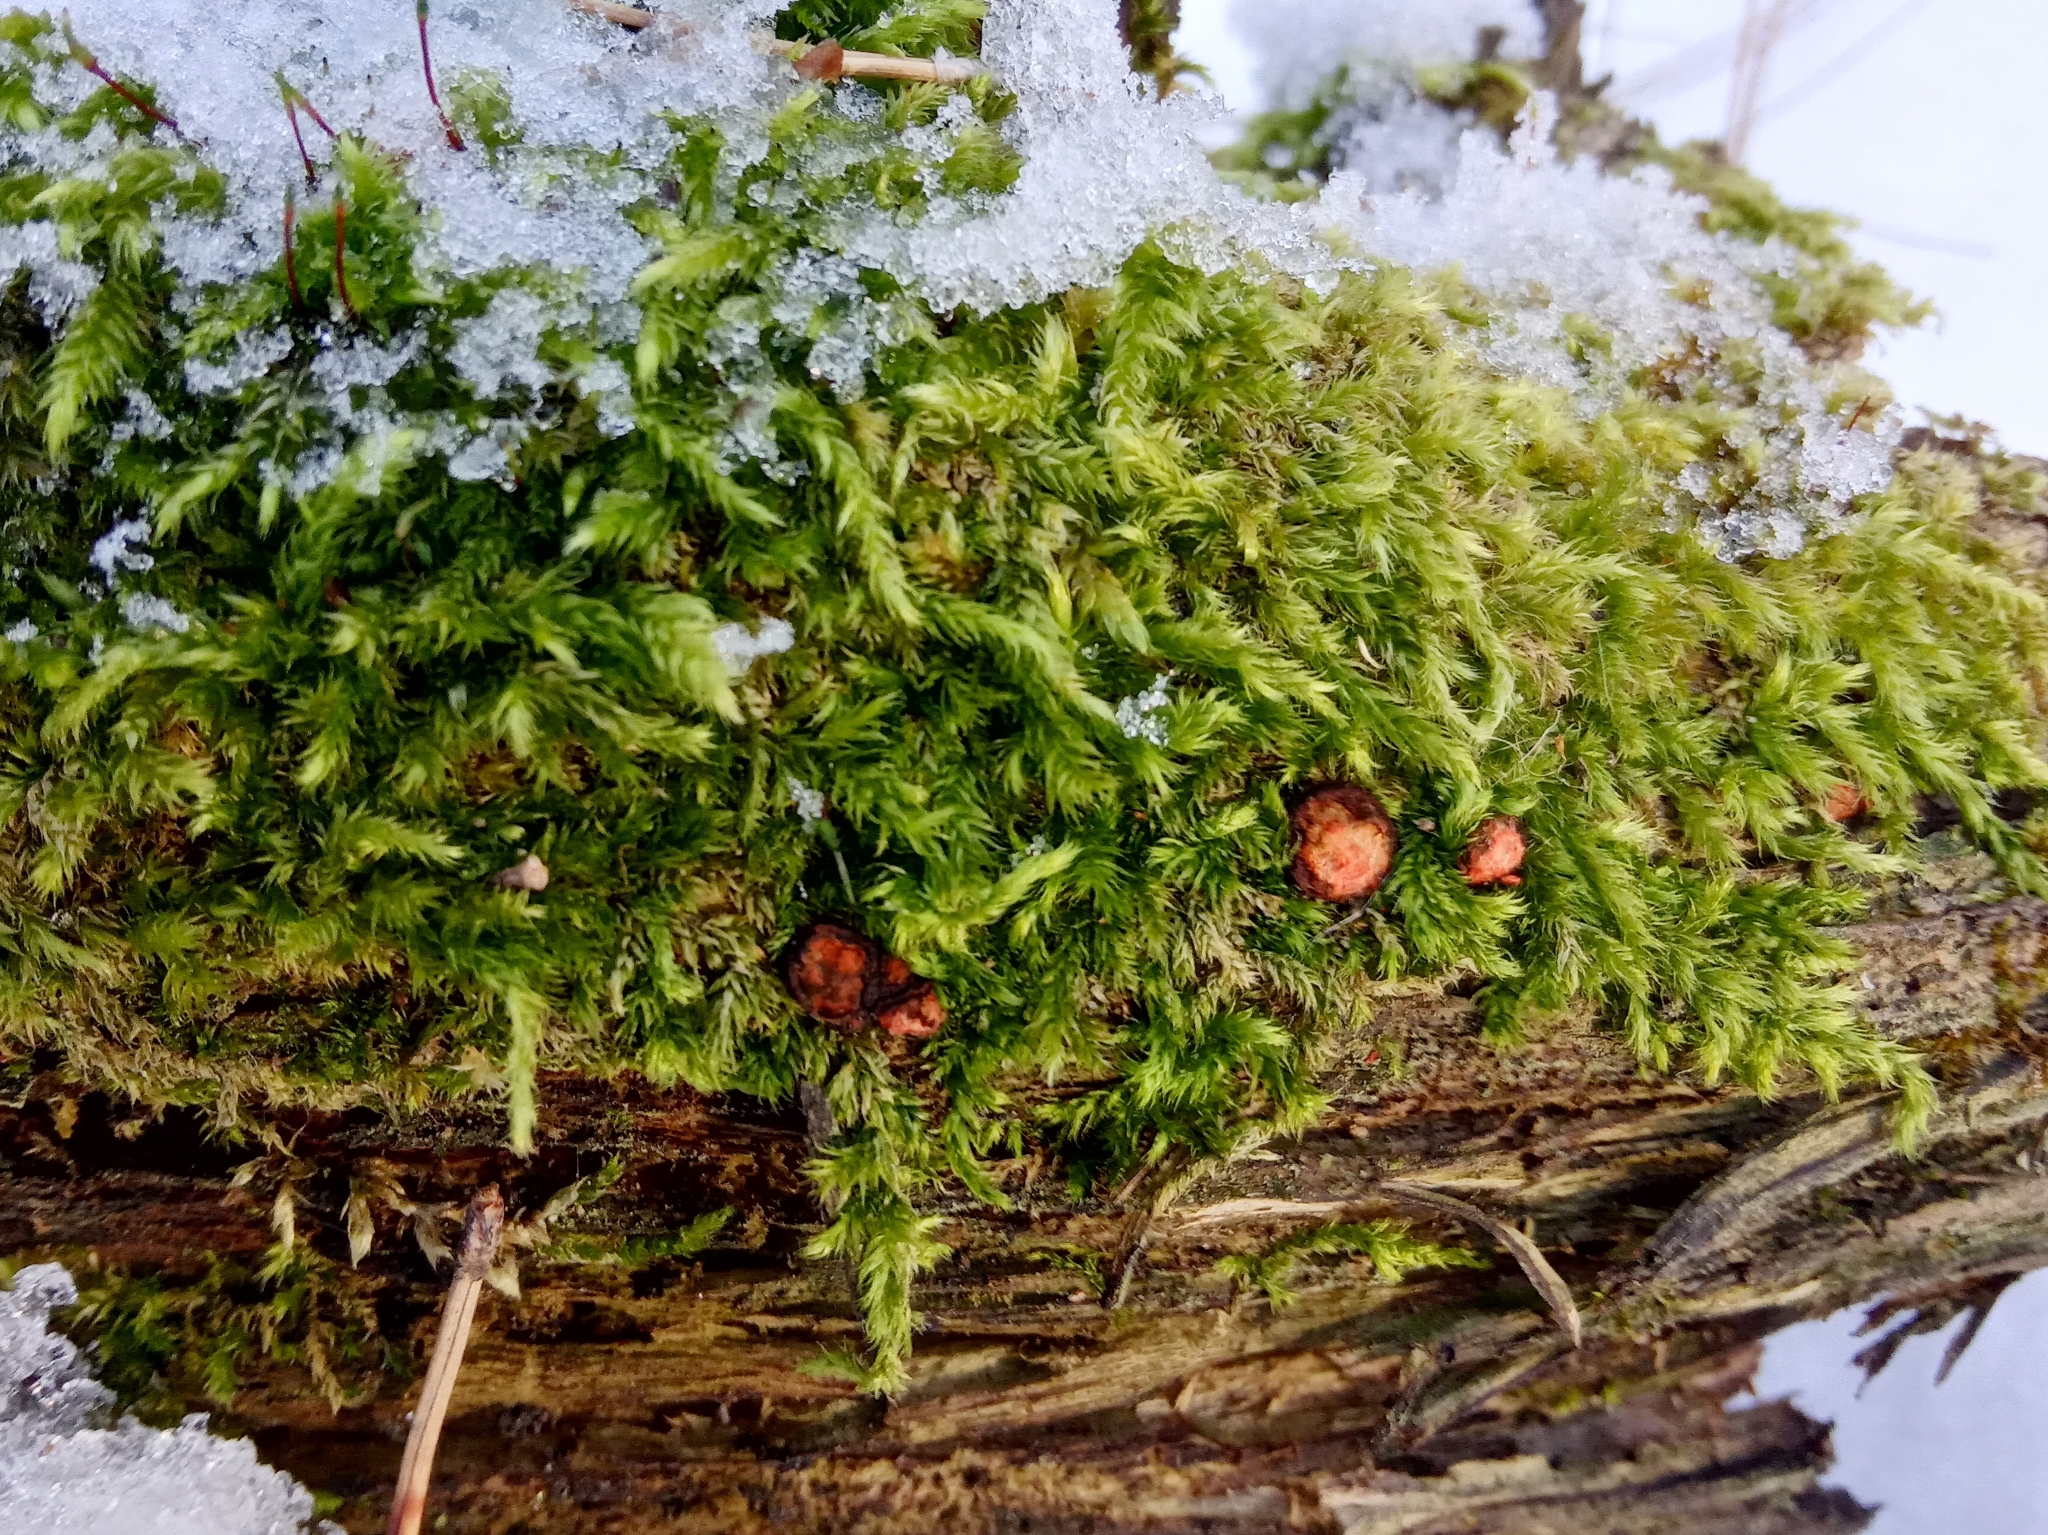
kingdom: Plantae
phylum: Bryophyta
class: Bryopsida
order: Hypnales
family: Brachytheciaceae
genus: Brachythecium
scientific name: Brachythecium rutabulum
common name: Rough-stalked feather-moss
